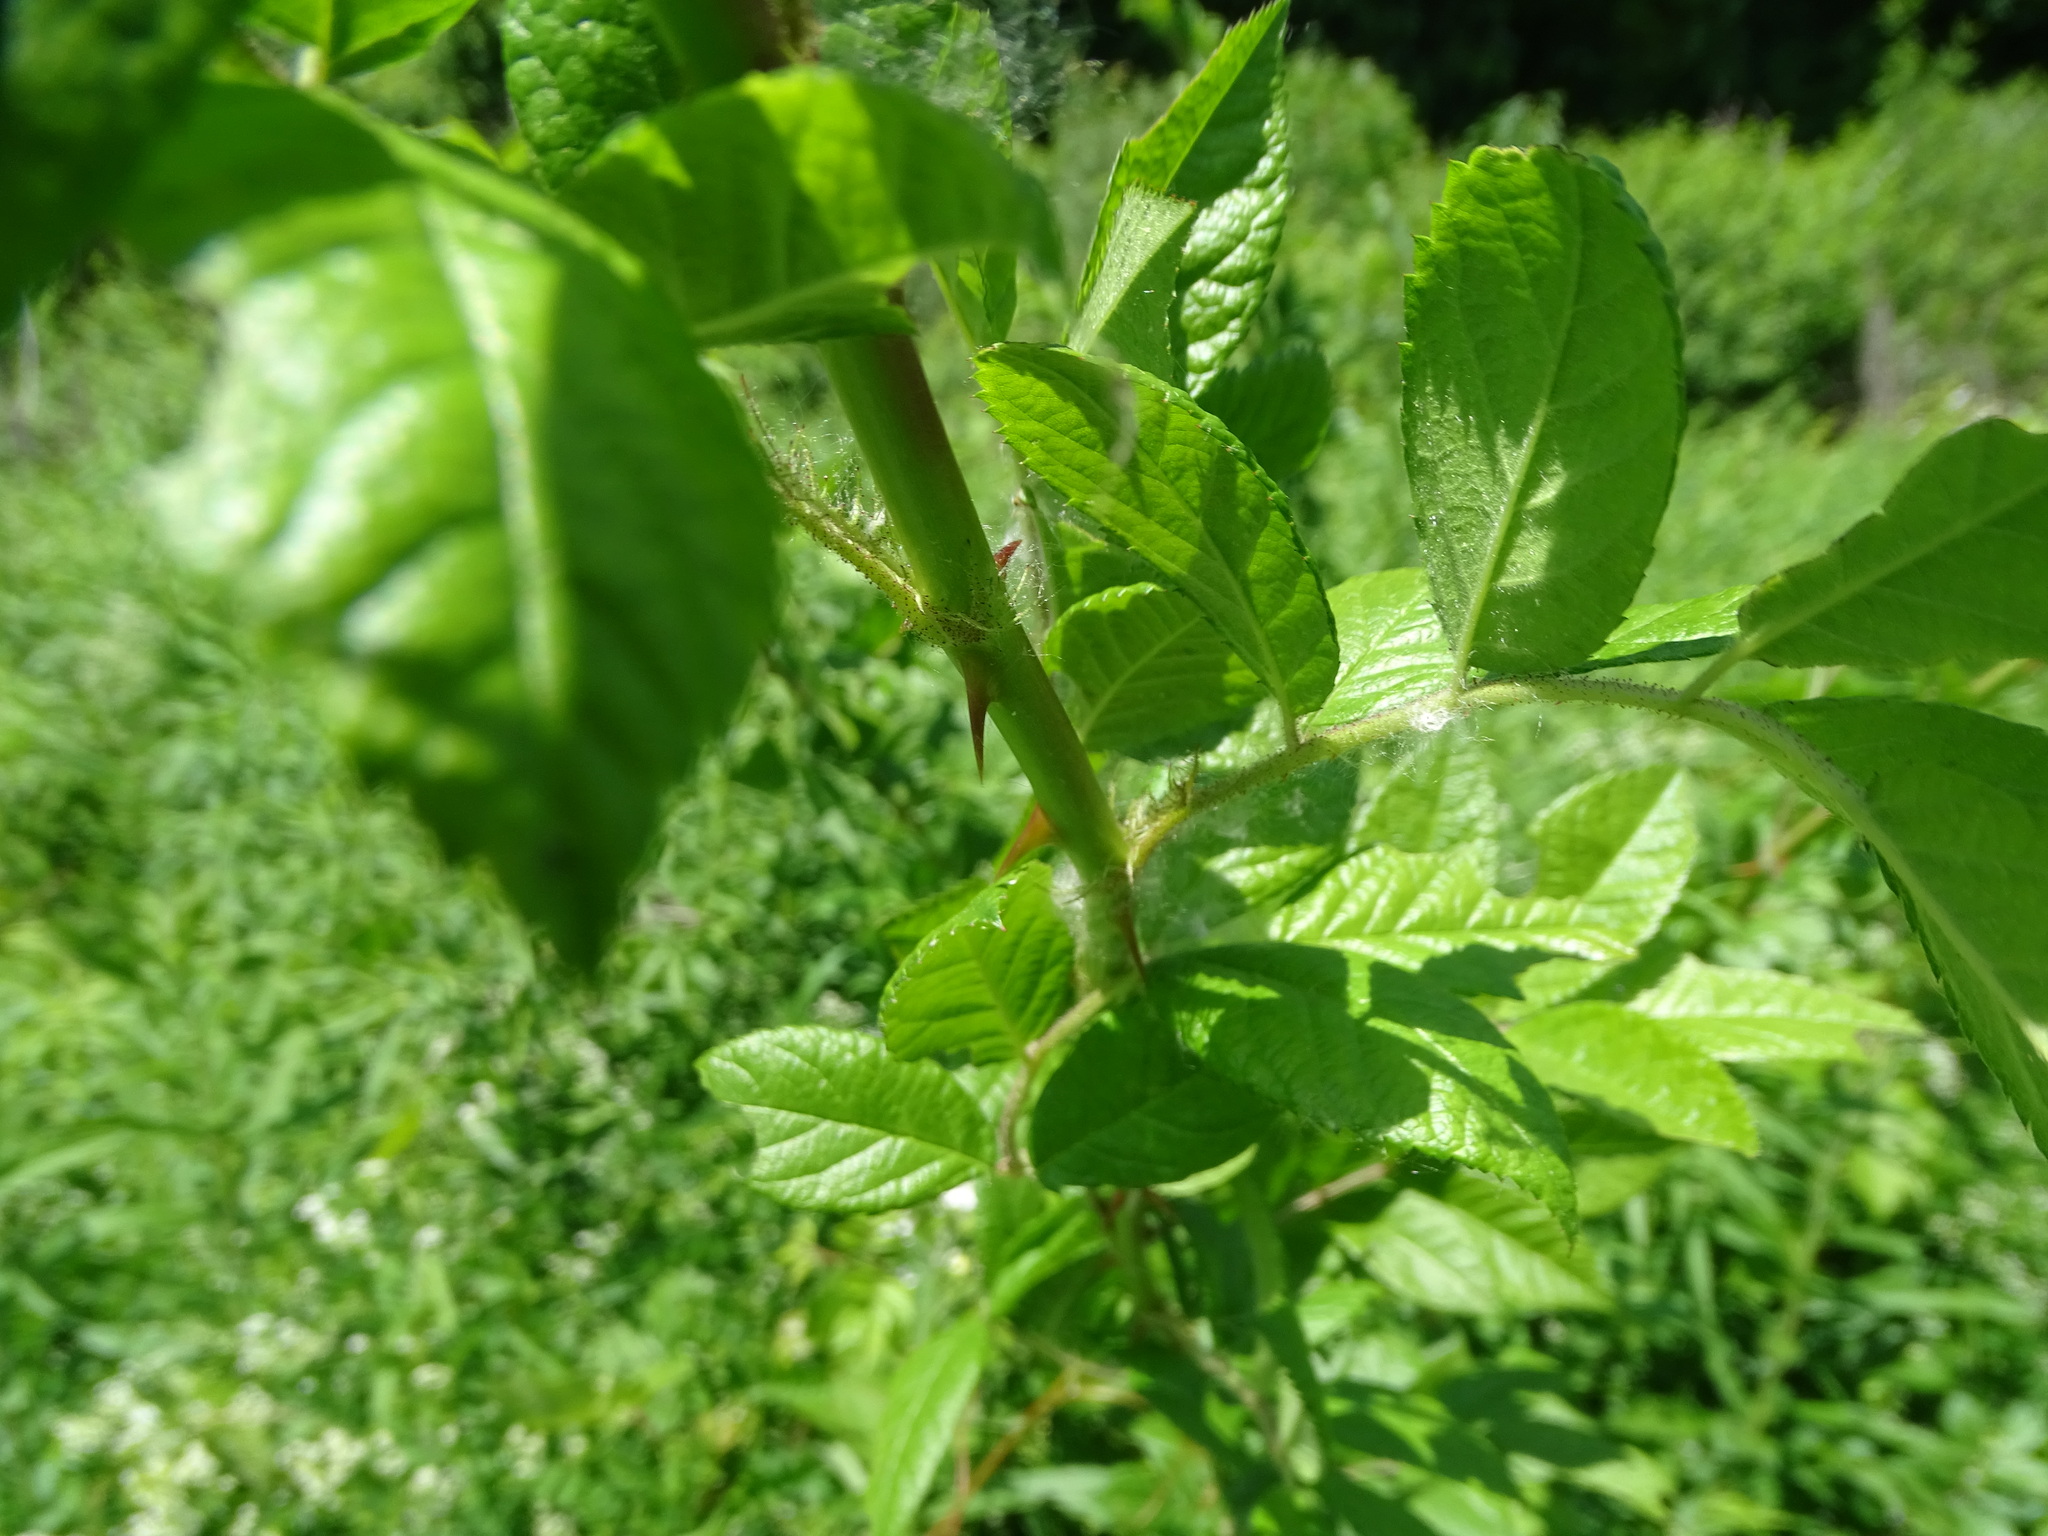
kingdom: Plantae
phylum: Tracheophyta
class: Magnoliopsida
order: Rosales
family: Rosaceae
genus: Rosa
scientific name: Rosa multiflora
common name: Multiflora rose
